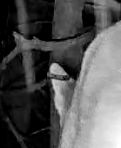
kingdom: Animalia
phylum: Chordata
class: Mammalia
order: Carnivora
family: Felidae
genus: Puma
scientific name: Puma concolor
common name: Puma
